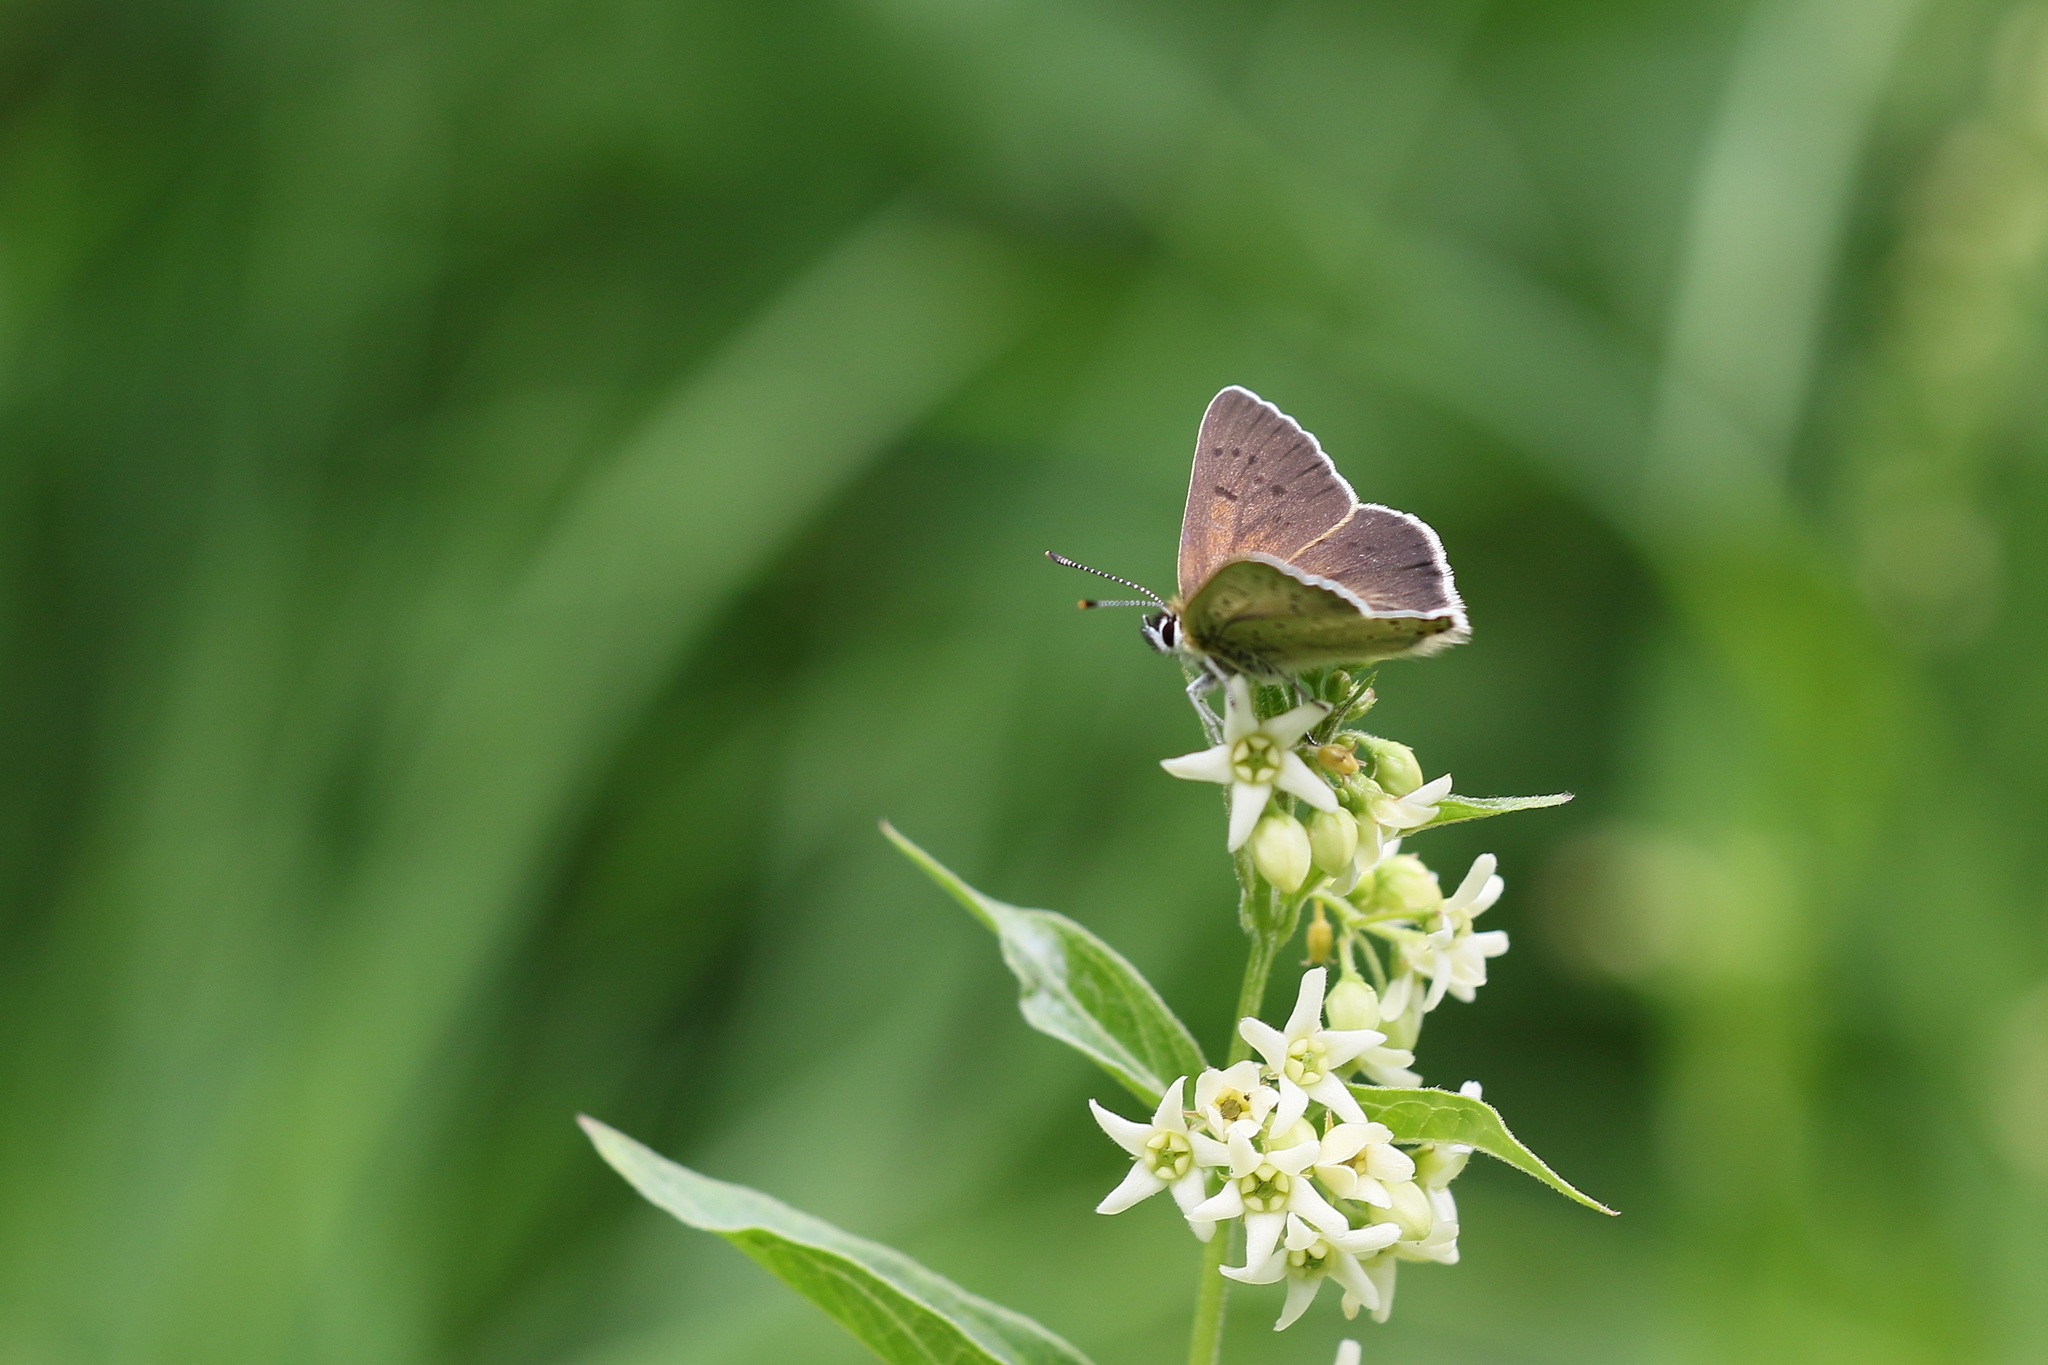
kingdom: Animalia
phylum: Arthropoda
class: Insecta
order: Lepidoptera
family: Lycaenidae
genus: Loweia
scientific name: Loweia tityrus
